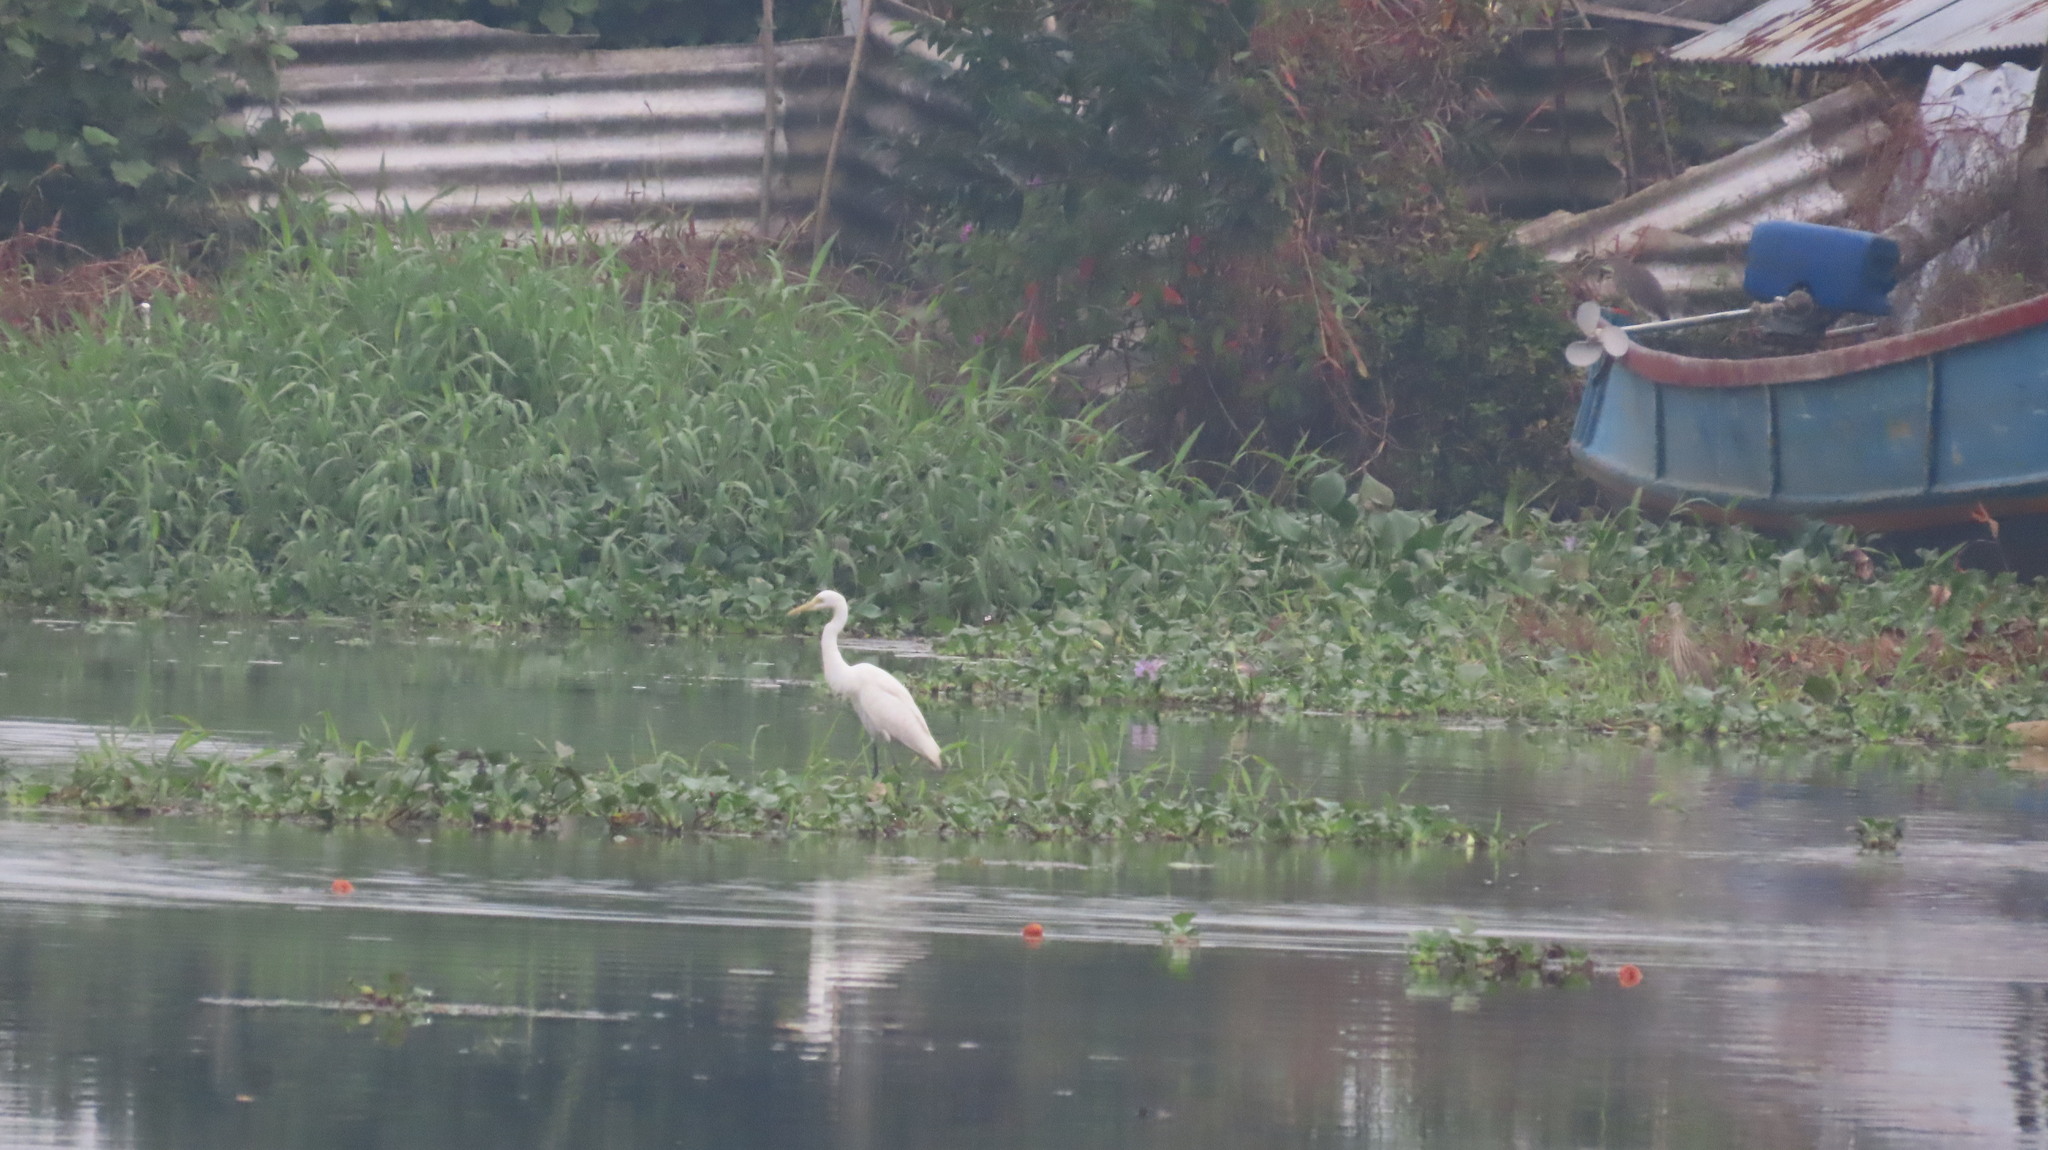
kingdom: Animalia
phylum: Chordata
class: Aves
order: Pelecaniformes
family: Ardeidae
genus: Egretta
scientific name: Egretta intermedia
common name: Intermediate egret
